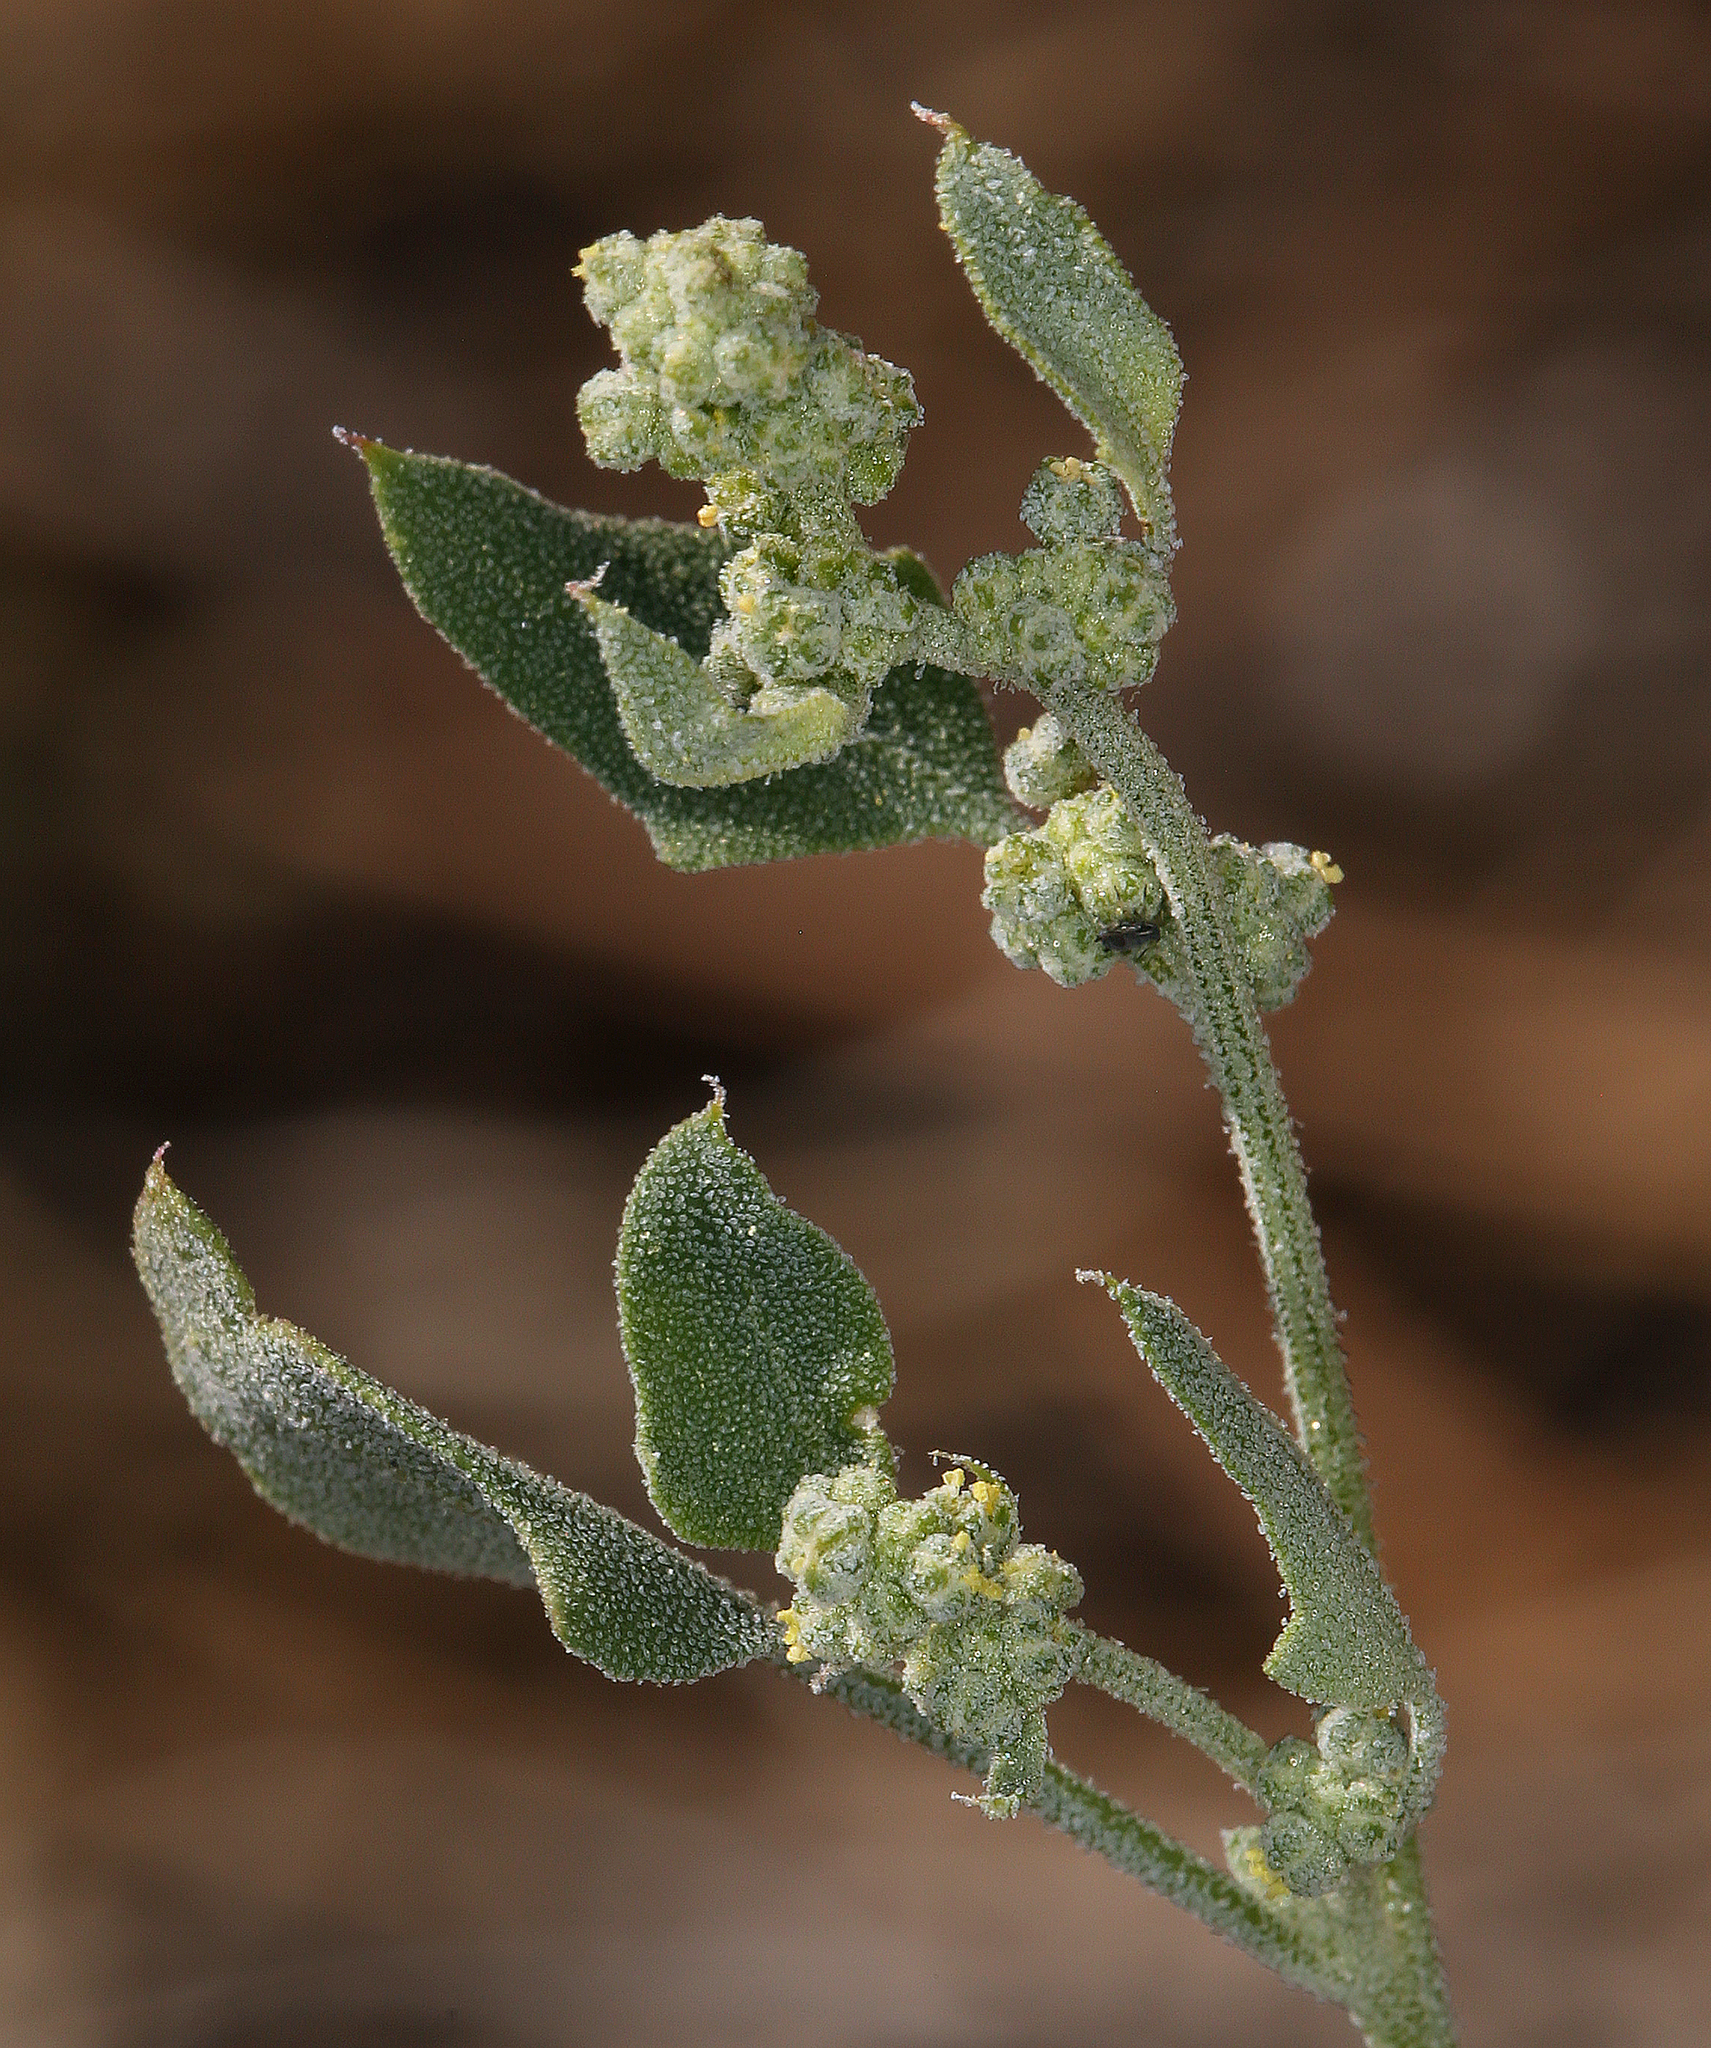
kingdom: Plantae
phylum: Tracheophyta
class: Magnoliopsida
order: Caryophyllales
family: Amaranthaceae
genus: Chenopodium
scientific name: Chenopodium fremontii
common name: Fremont's goosefoot
